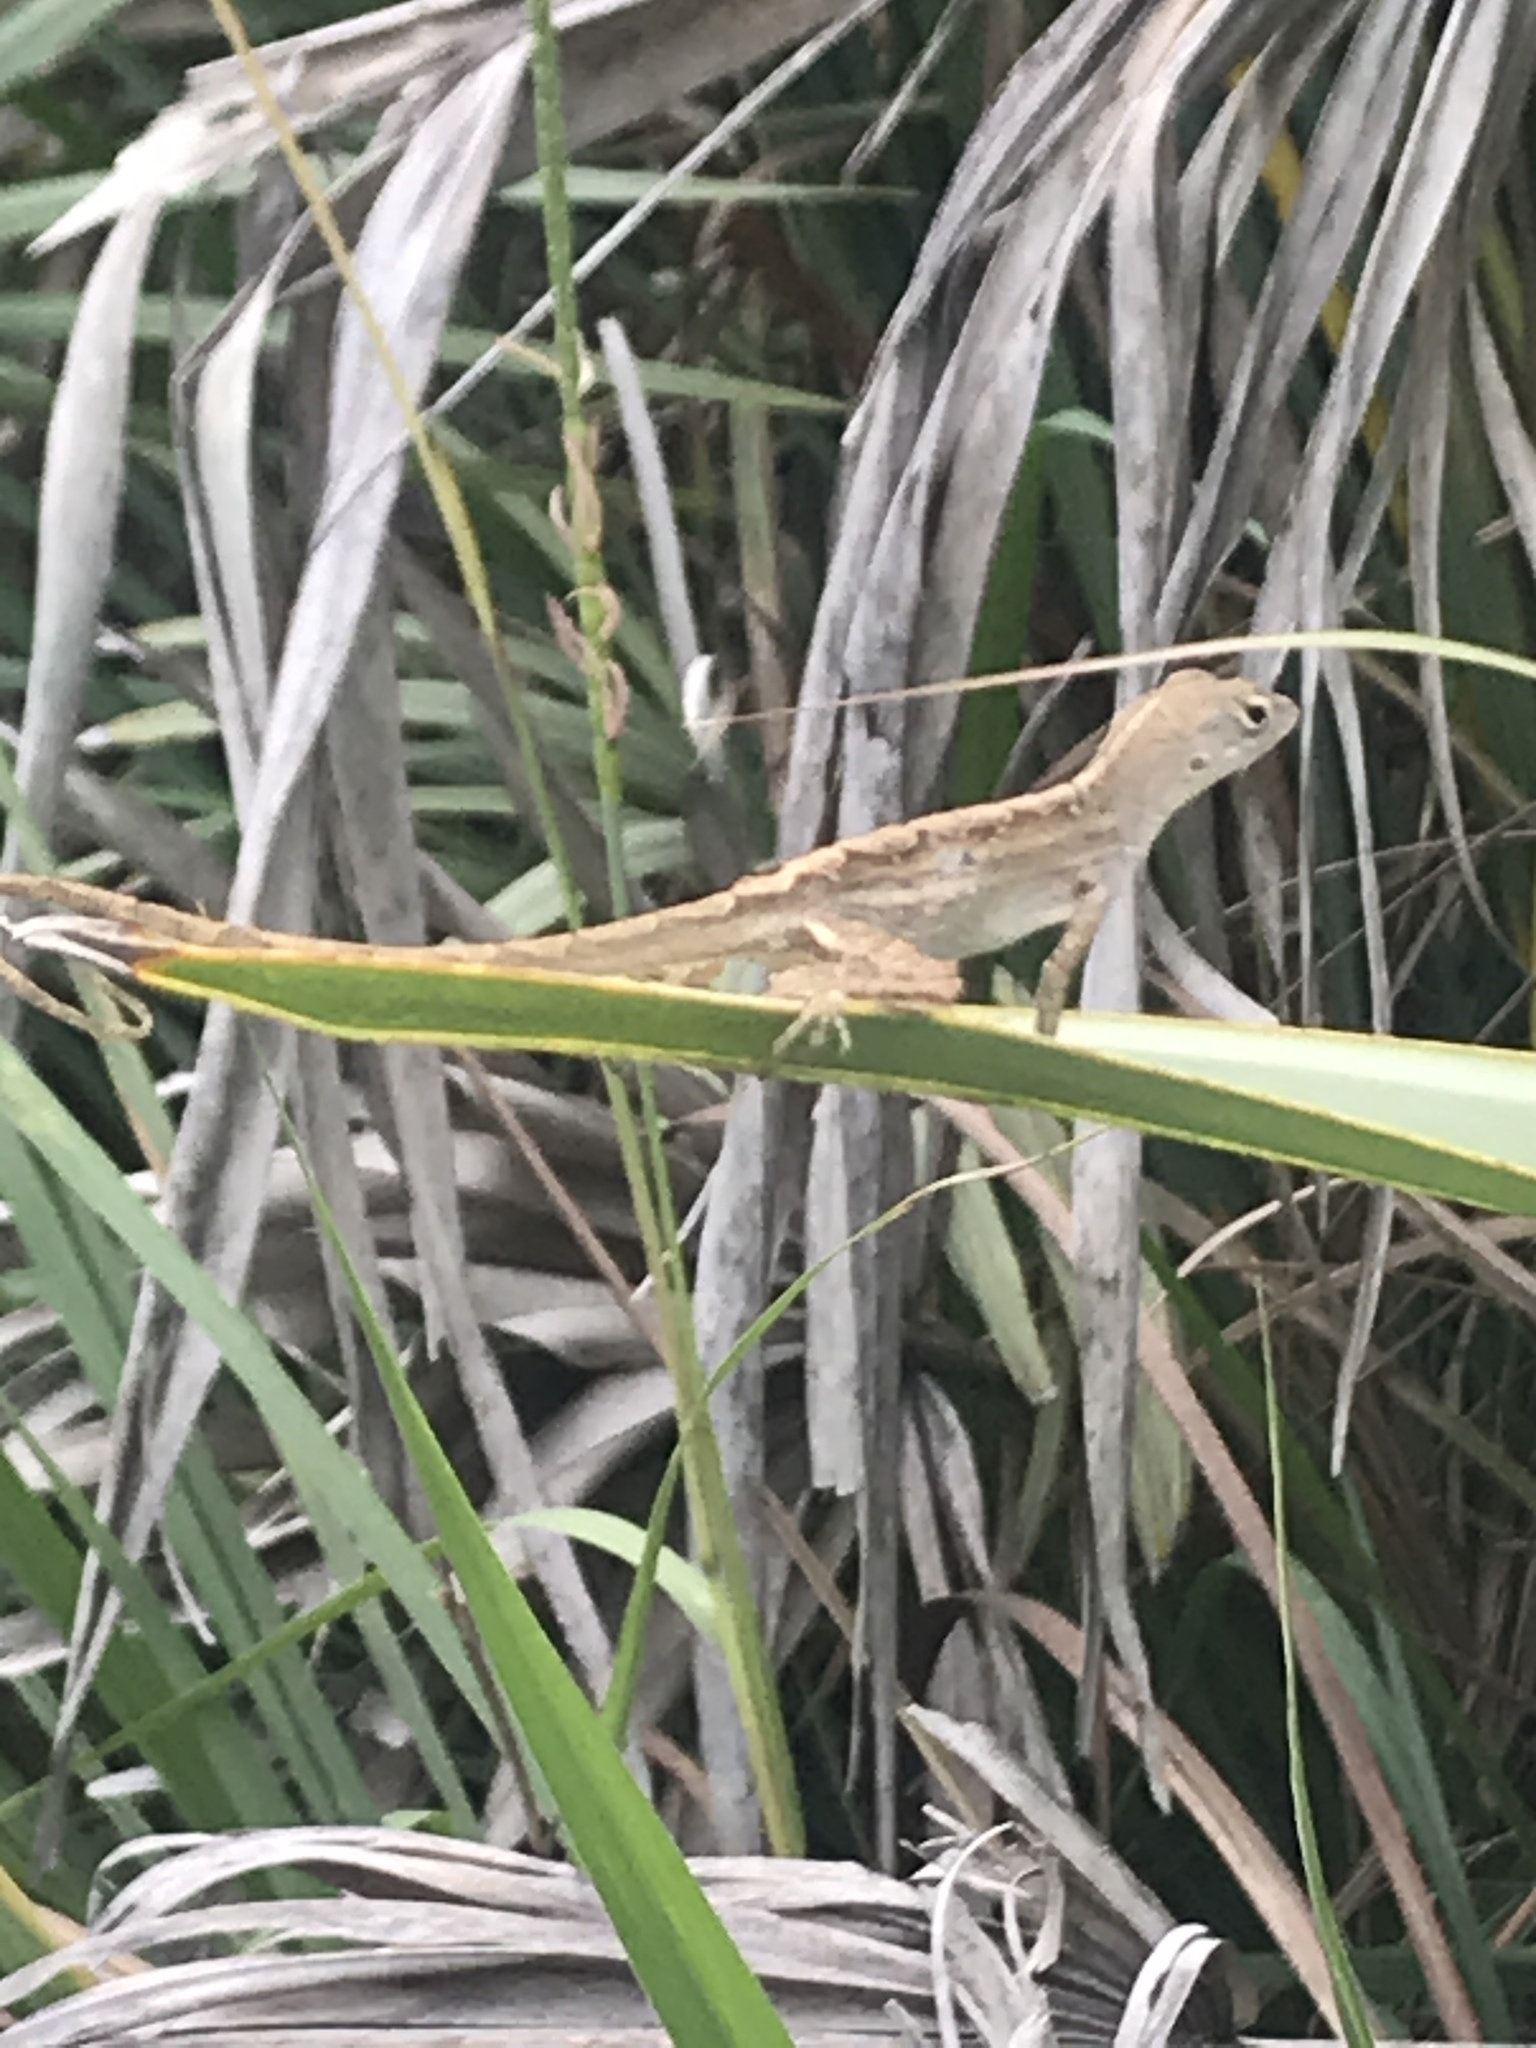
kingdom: Animalia
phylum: Chordata
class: Squamata
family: Dactyloidae
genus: Anolis
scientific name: Anolis sagrei
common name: Brown anole
